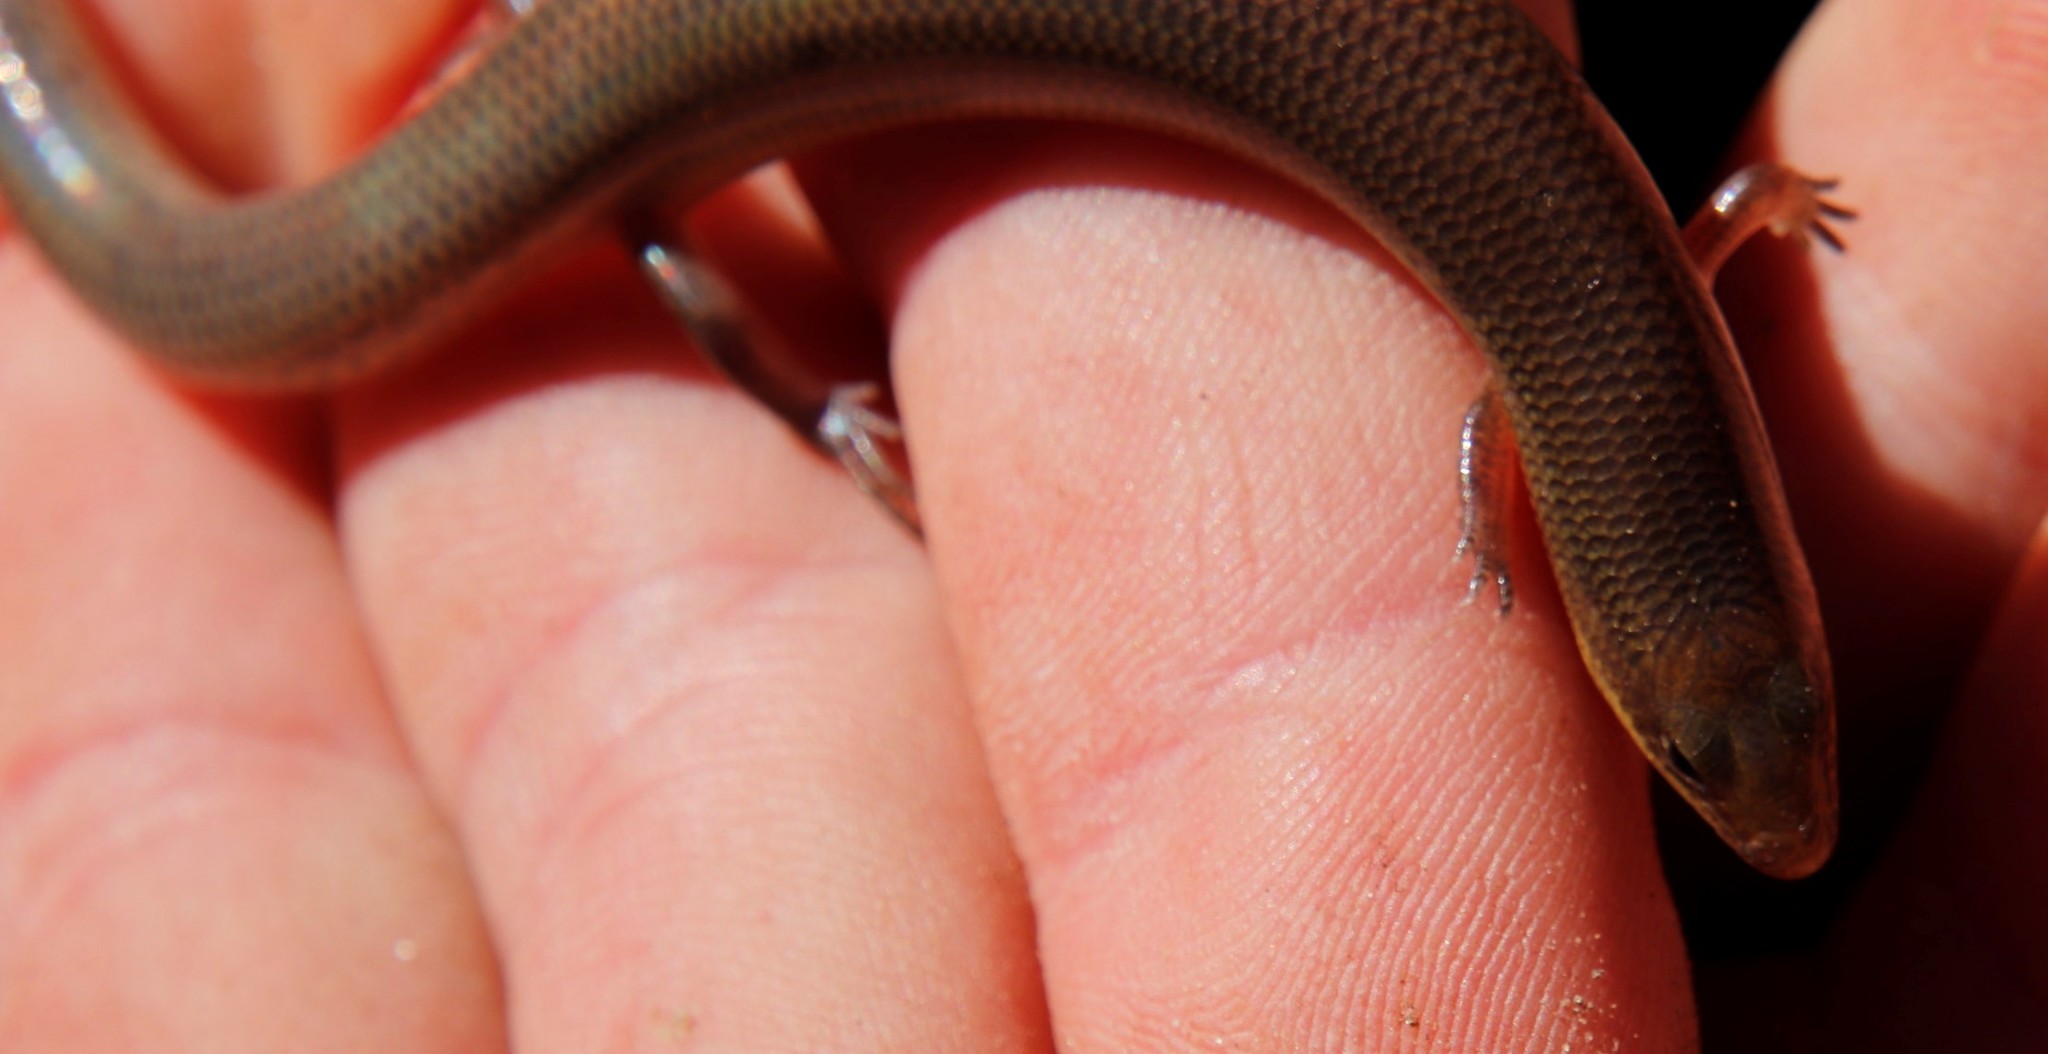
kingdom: Animalia
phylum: Chordata
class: Squamata
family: Scincidae
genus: Mochlus
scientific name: Mochlus sundevallii
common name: Peters' eyelid skink
